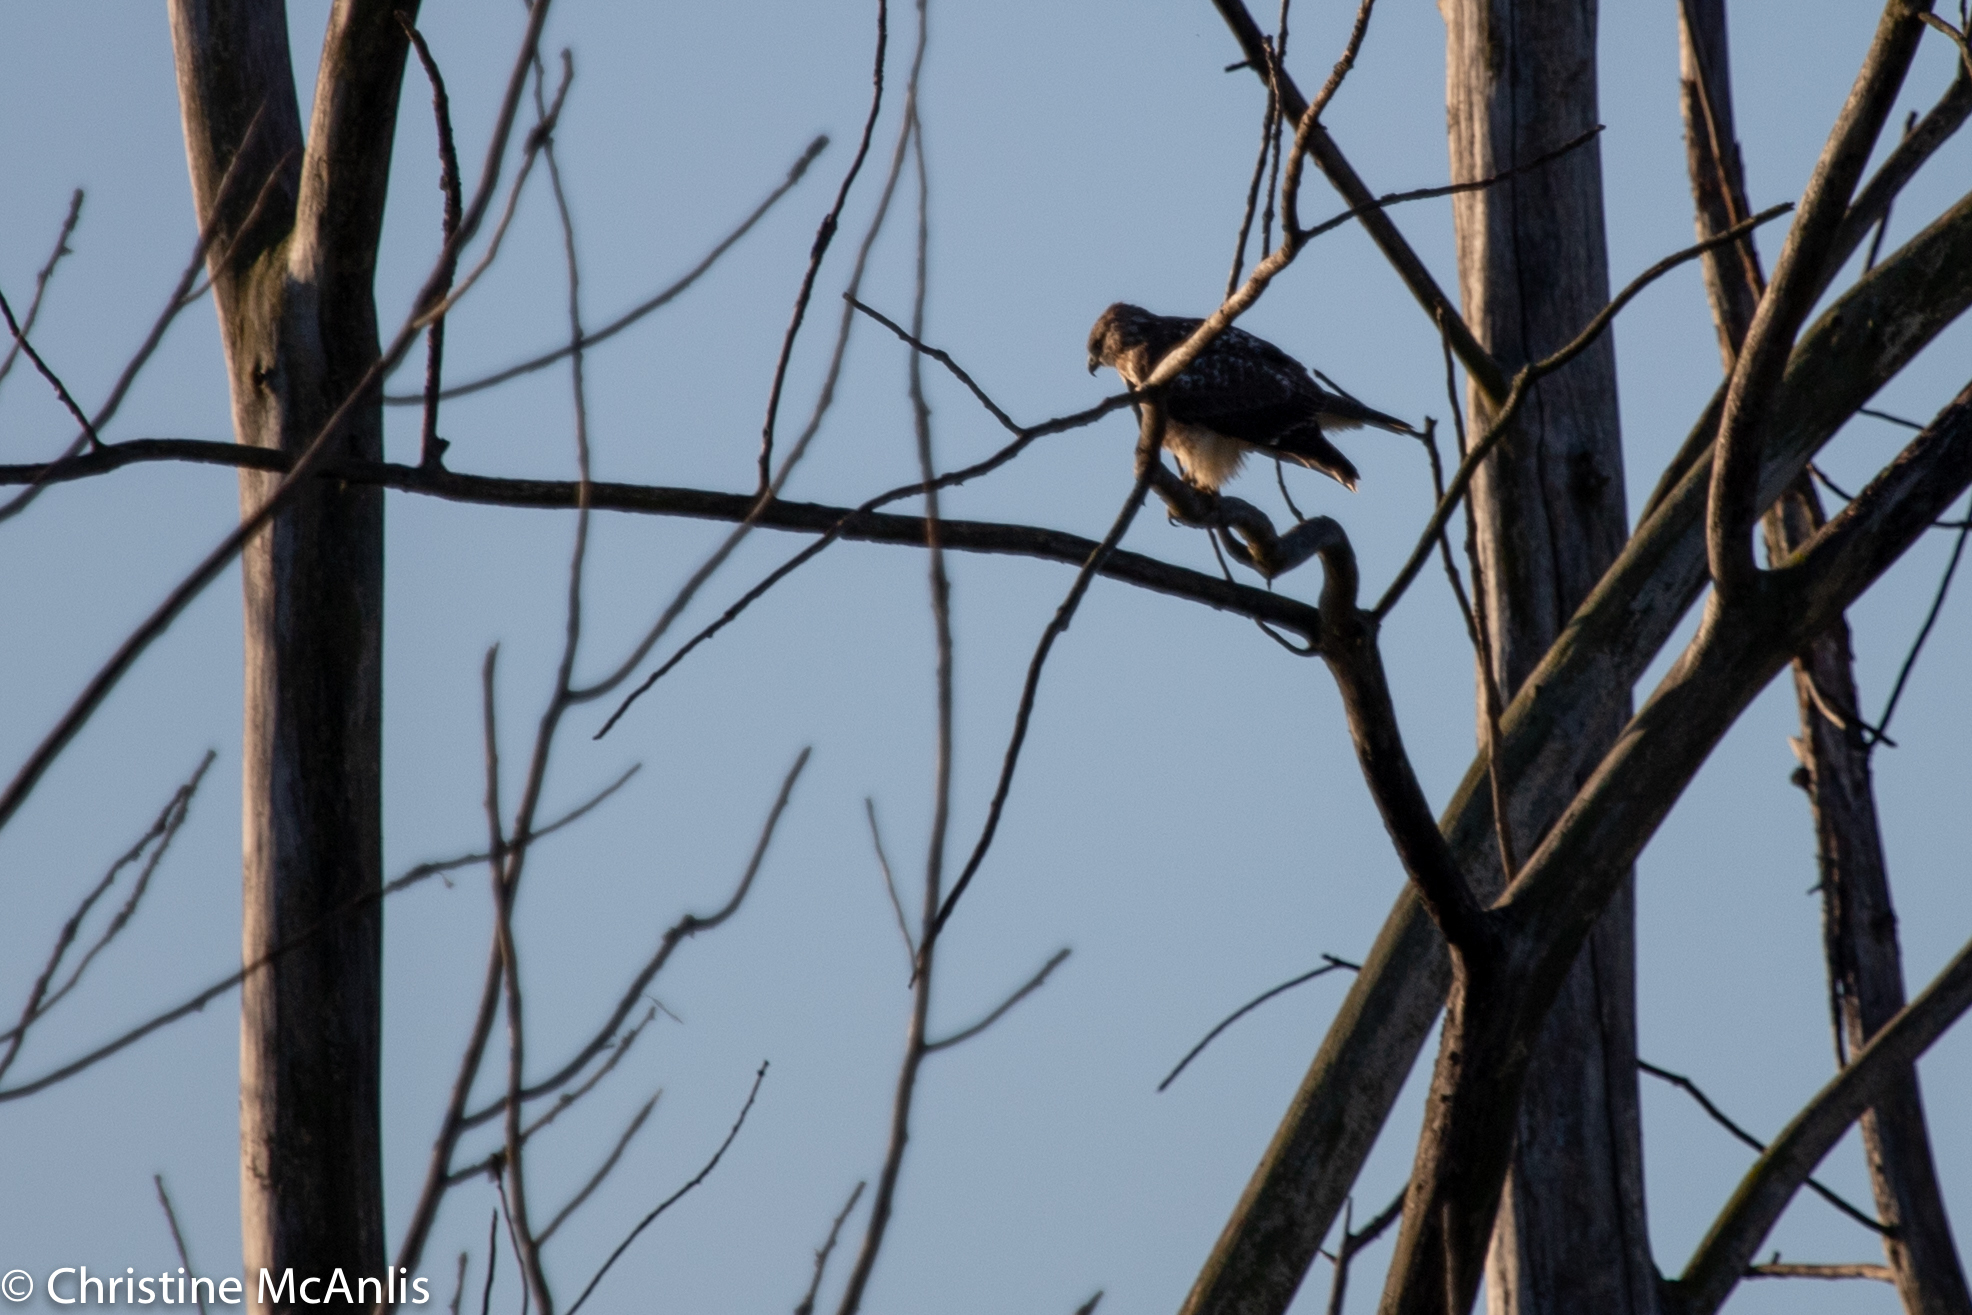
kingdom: Animalia
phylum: Chordata
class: Aves
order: Accipitriformes
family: Accipitridae
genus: Buteo
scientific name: Buteo jamaicensis
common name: Red-tailed hawk
